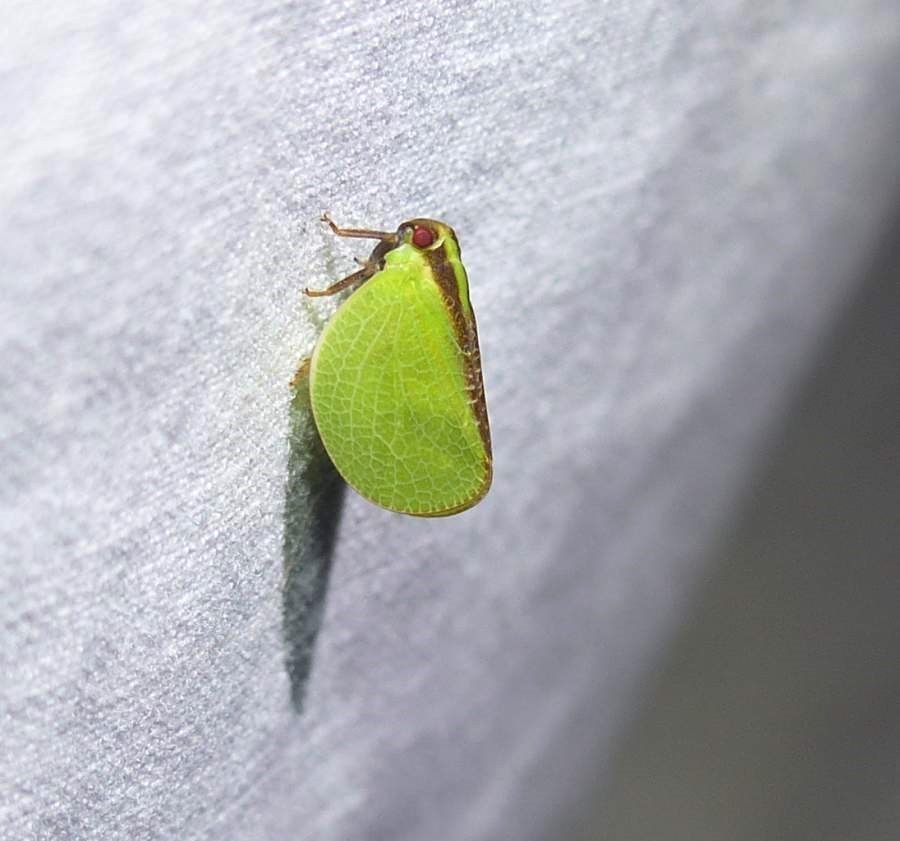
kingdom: Animalia
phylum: Arthropoda
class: Insecta
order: Hemiptera
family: Acanaloniidae
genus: Acanalonia
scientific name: Acanalonia bivittata
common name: Two-striped planthopper
